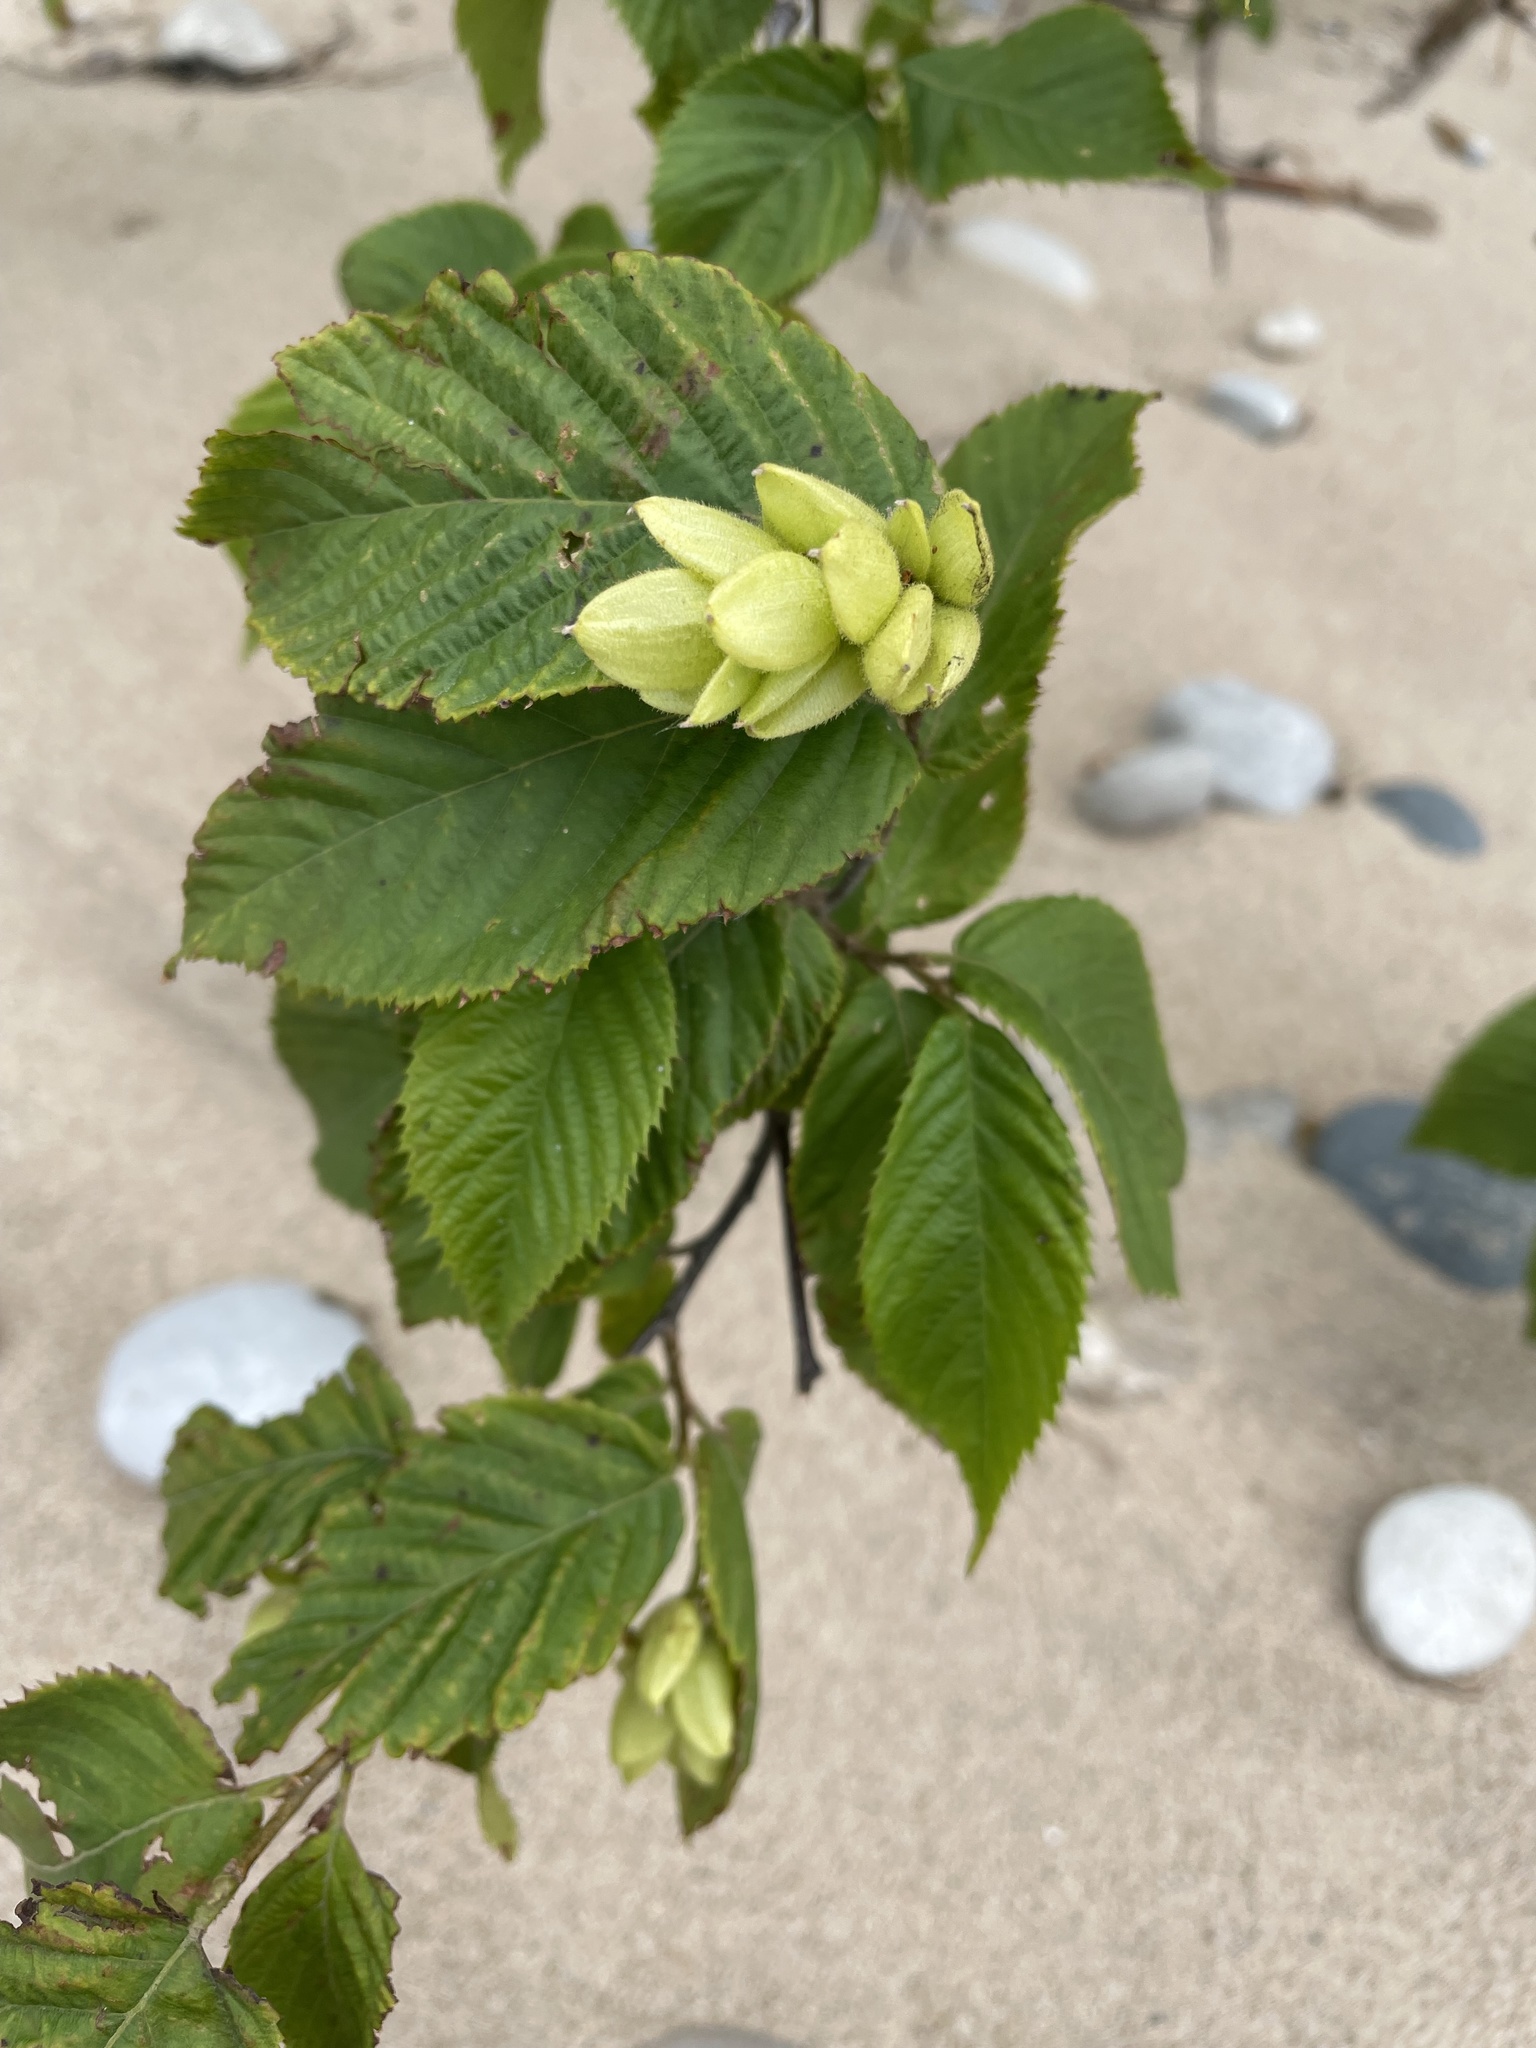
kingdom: Plantae
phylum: Tracheophyta
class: Magnoliopsida
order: Fagales
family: Betulaceae
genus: Ostrya
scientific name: Ostrya virginiana
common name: Ironwood
